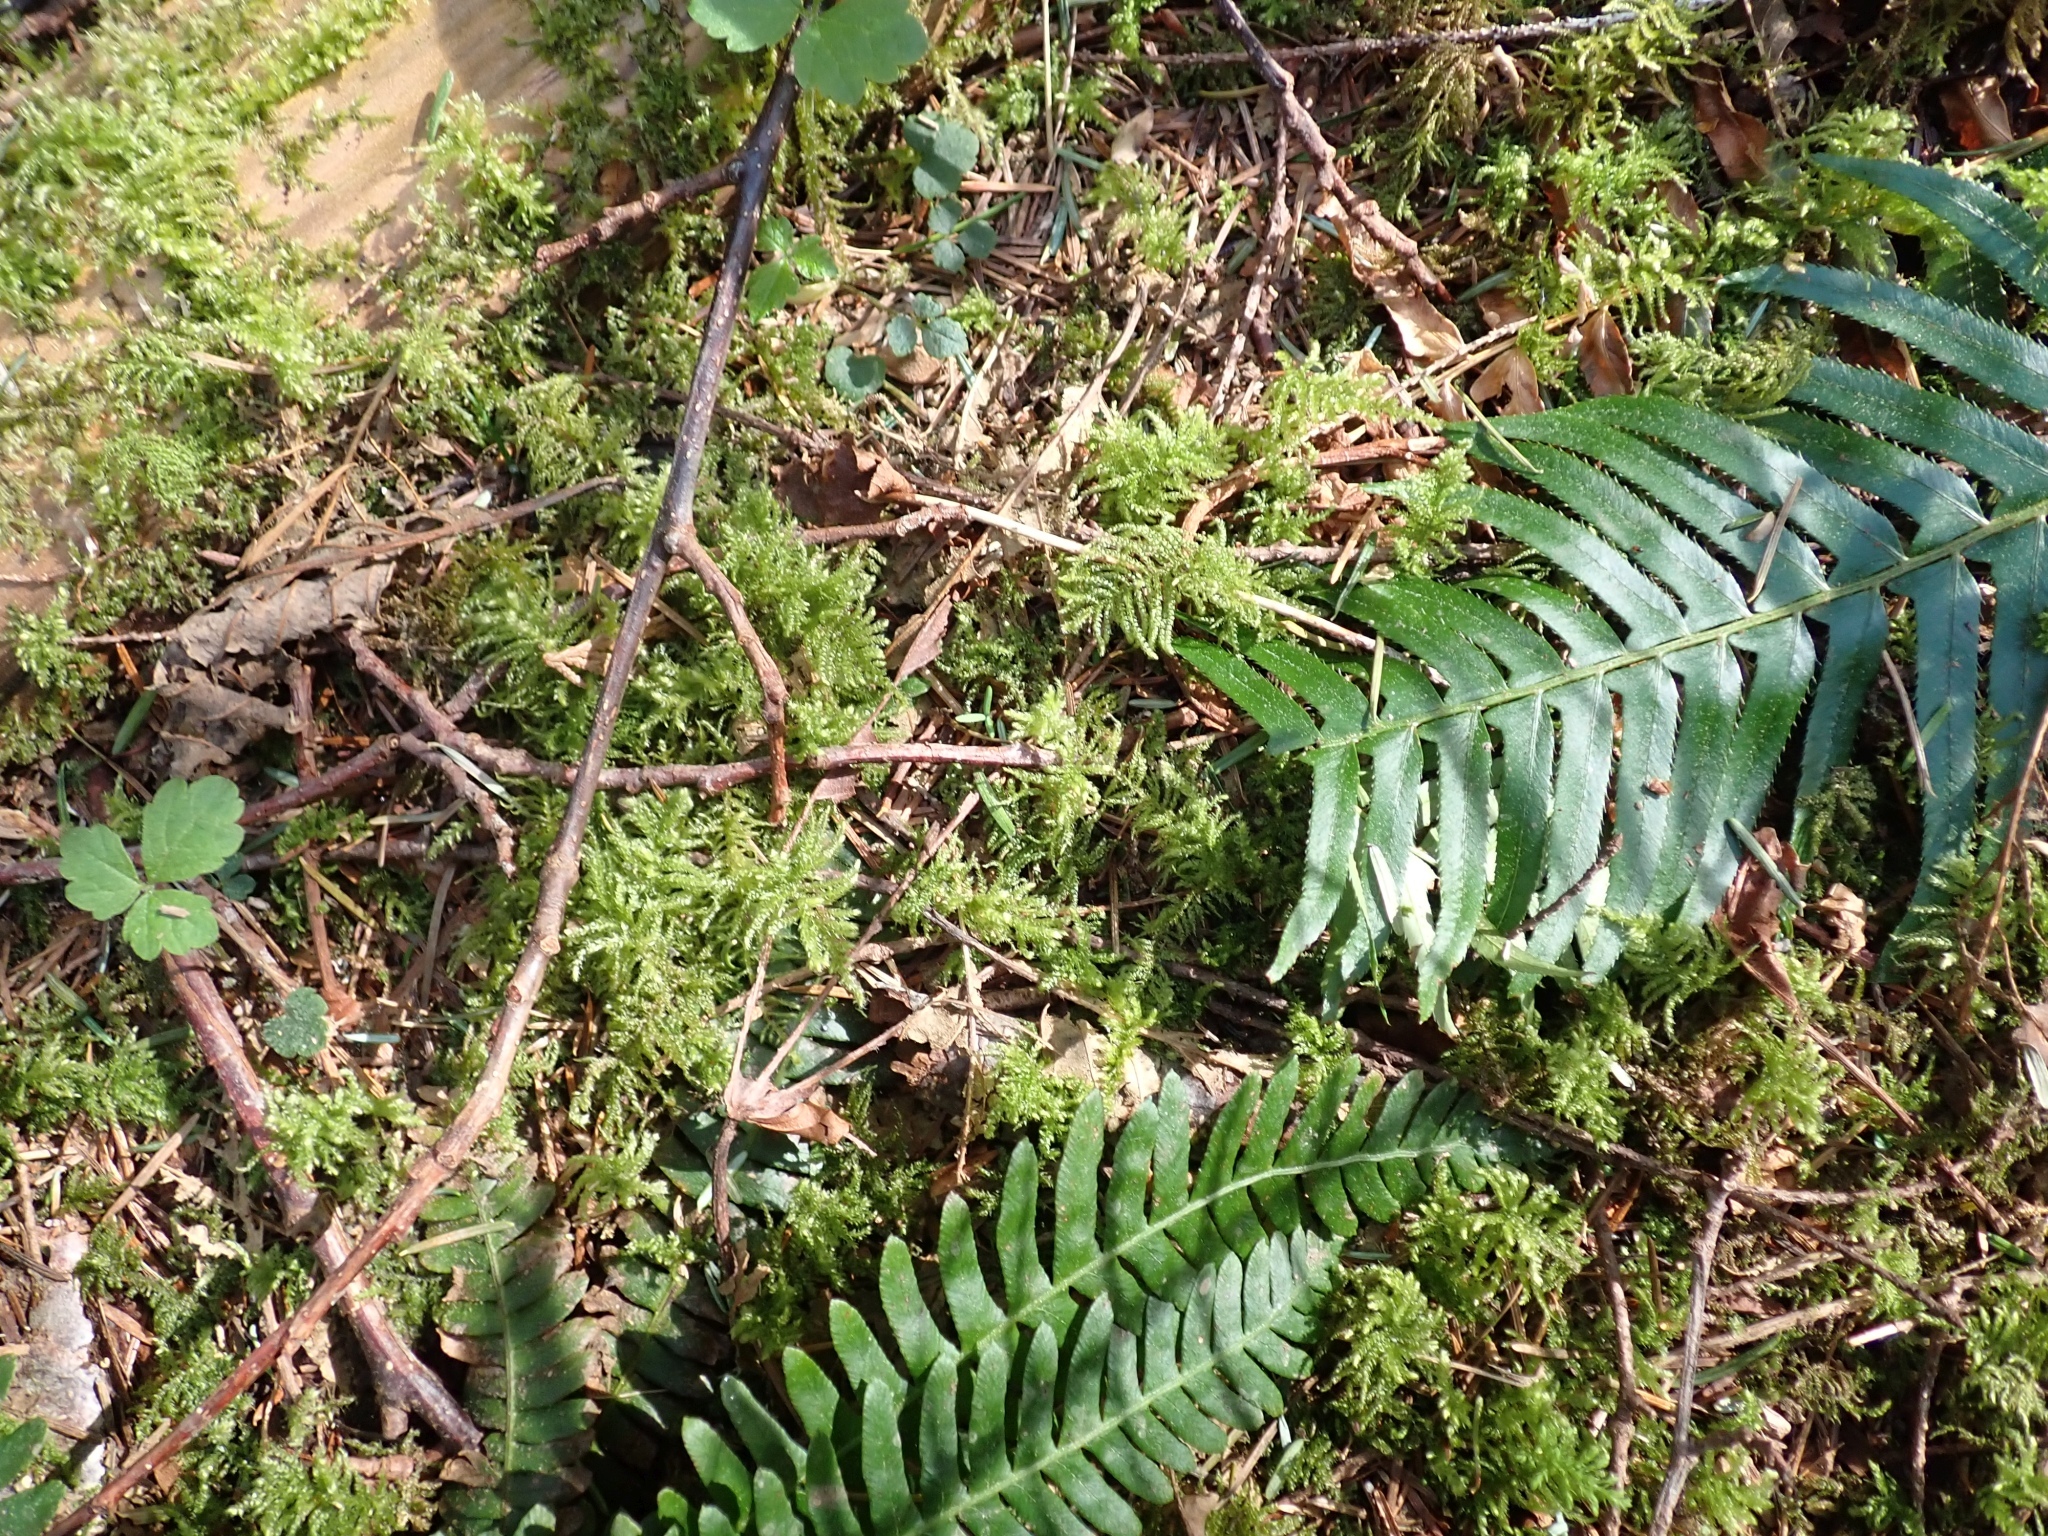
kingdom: Plantae
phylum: Bryophyta
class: Bryopsida
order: Hypnales
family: Brachytheciaceae
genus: Kindbergia
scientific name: Kindbergia oregana
